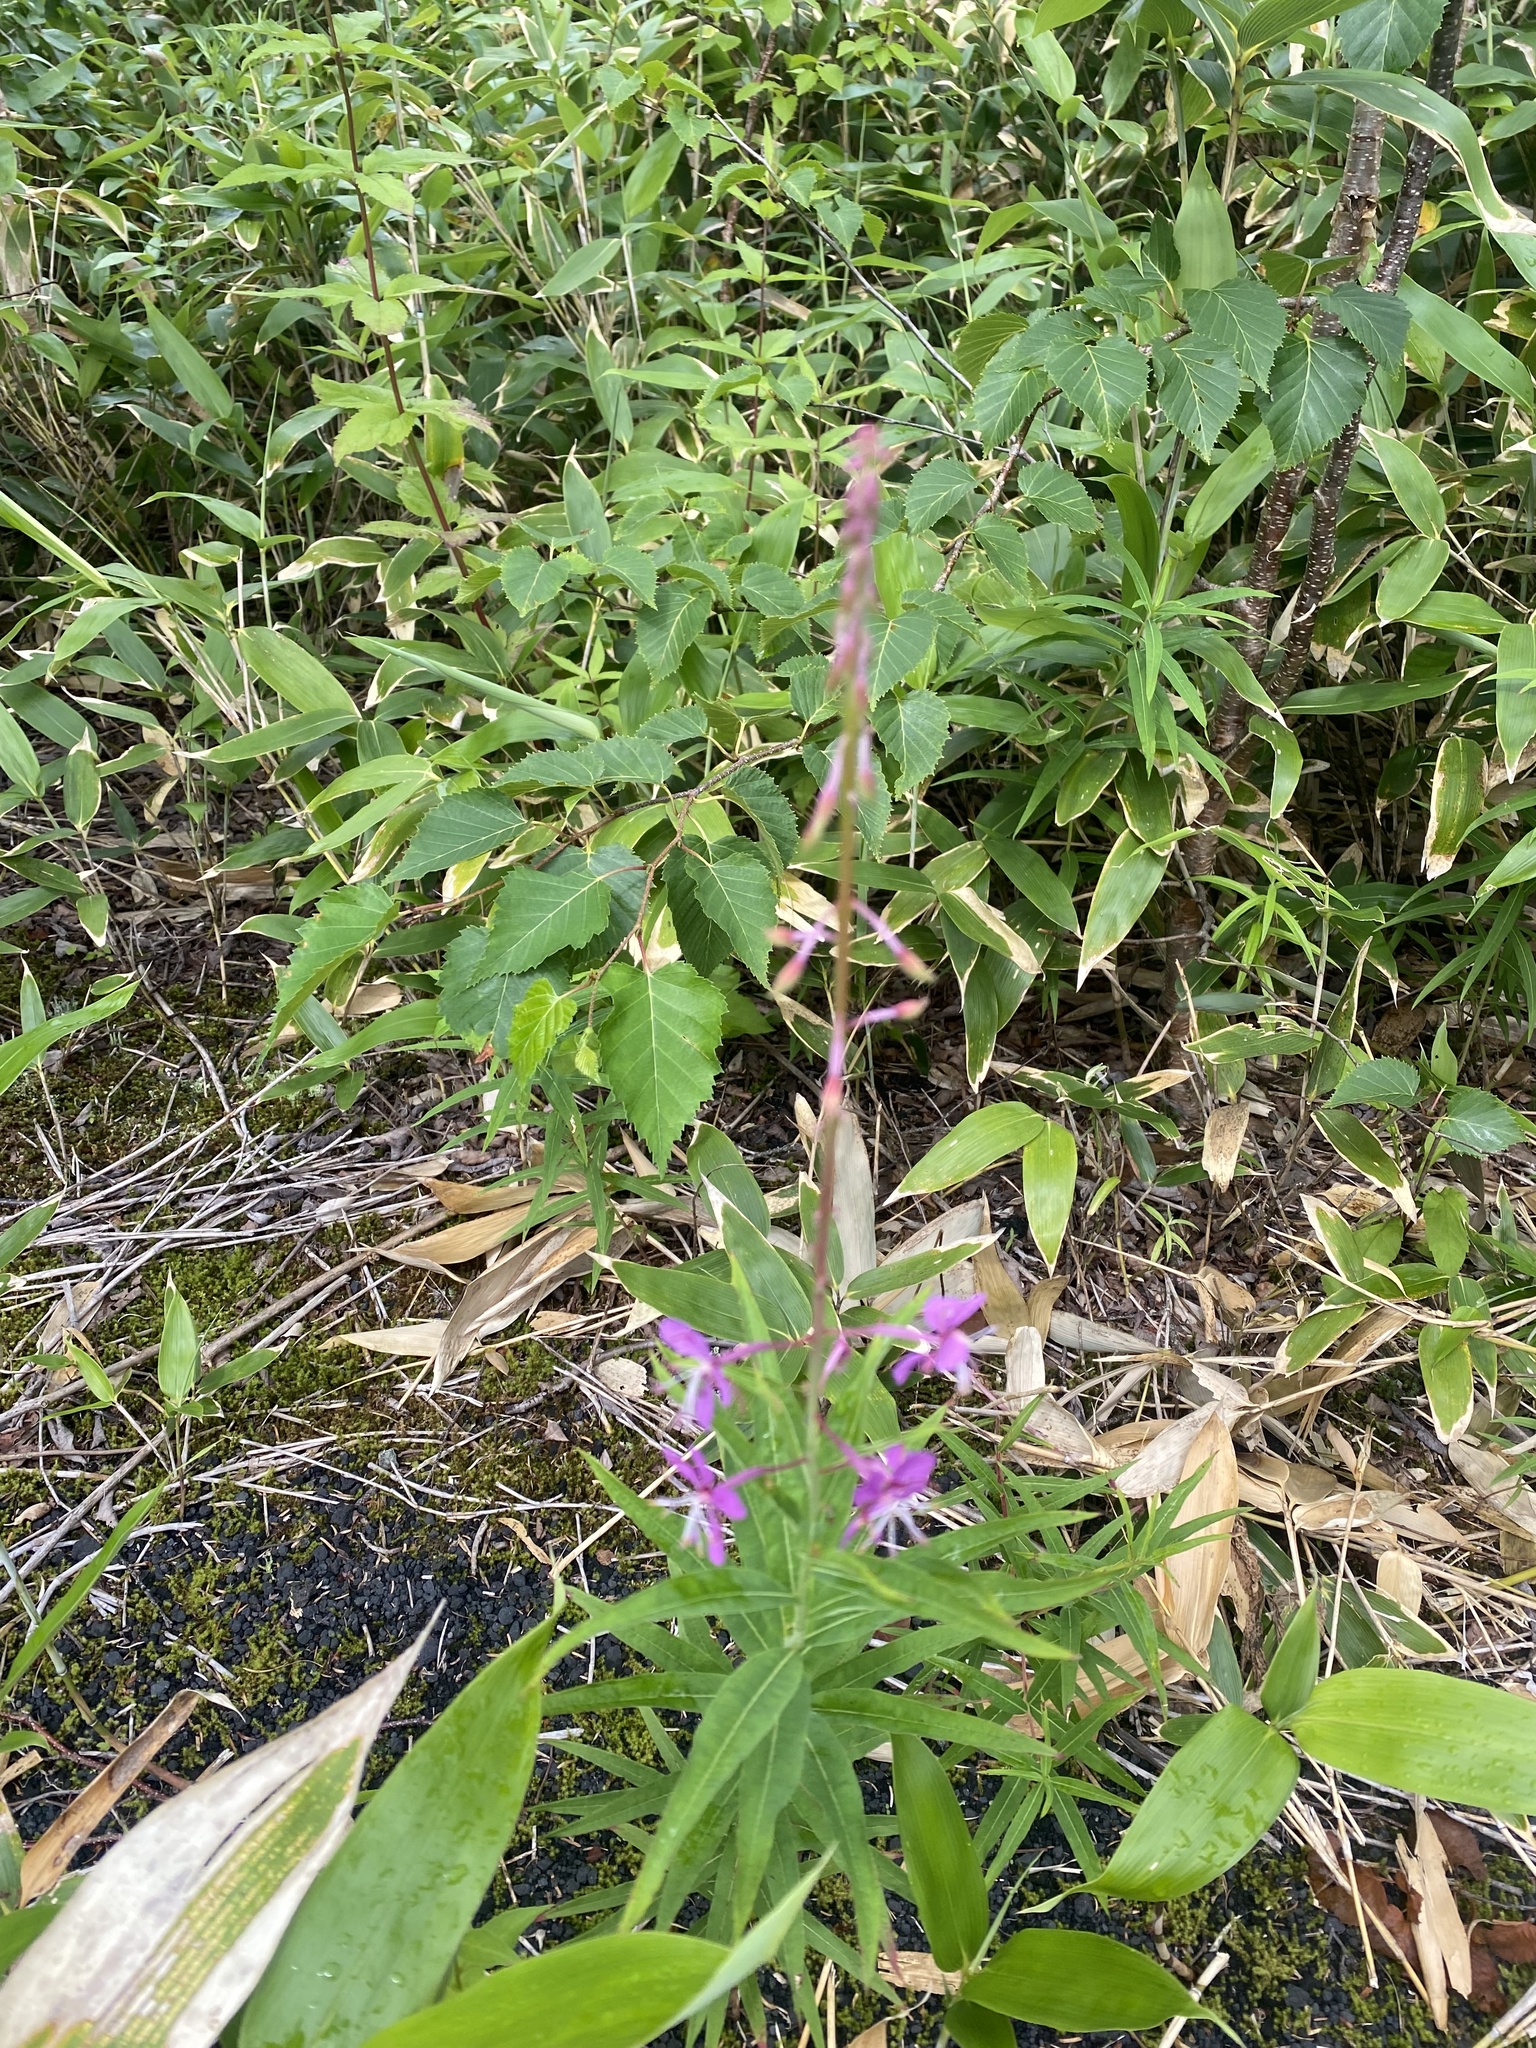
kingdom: Plantae
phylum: Tracheophyta
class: Magnoliopsida
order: Myrtales
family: Onagraceae
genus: Chamaenerion
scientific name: Chamaenerion angustifolium
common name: Fireweed
